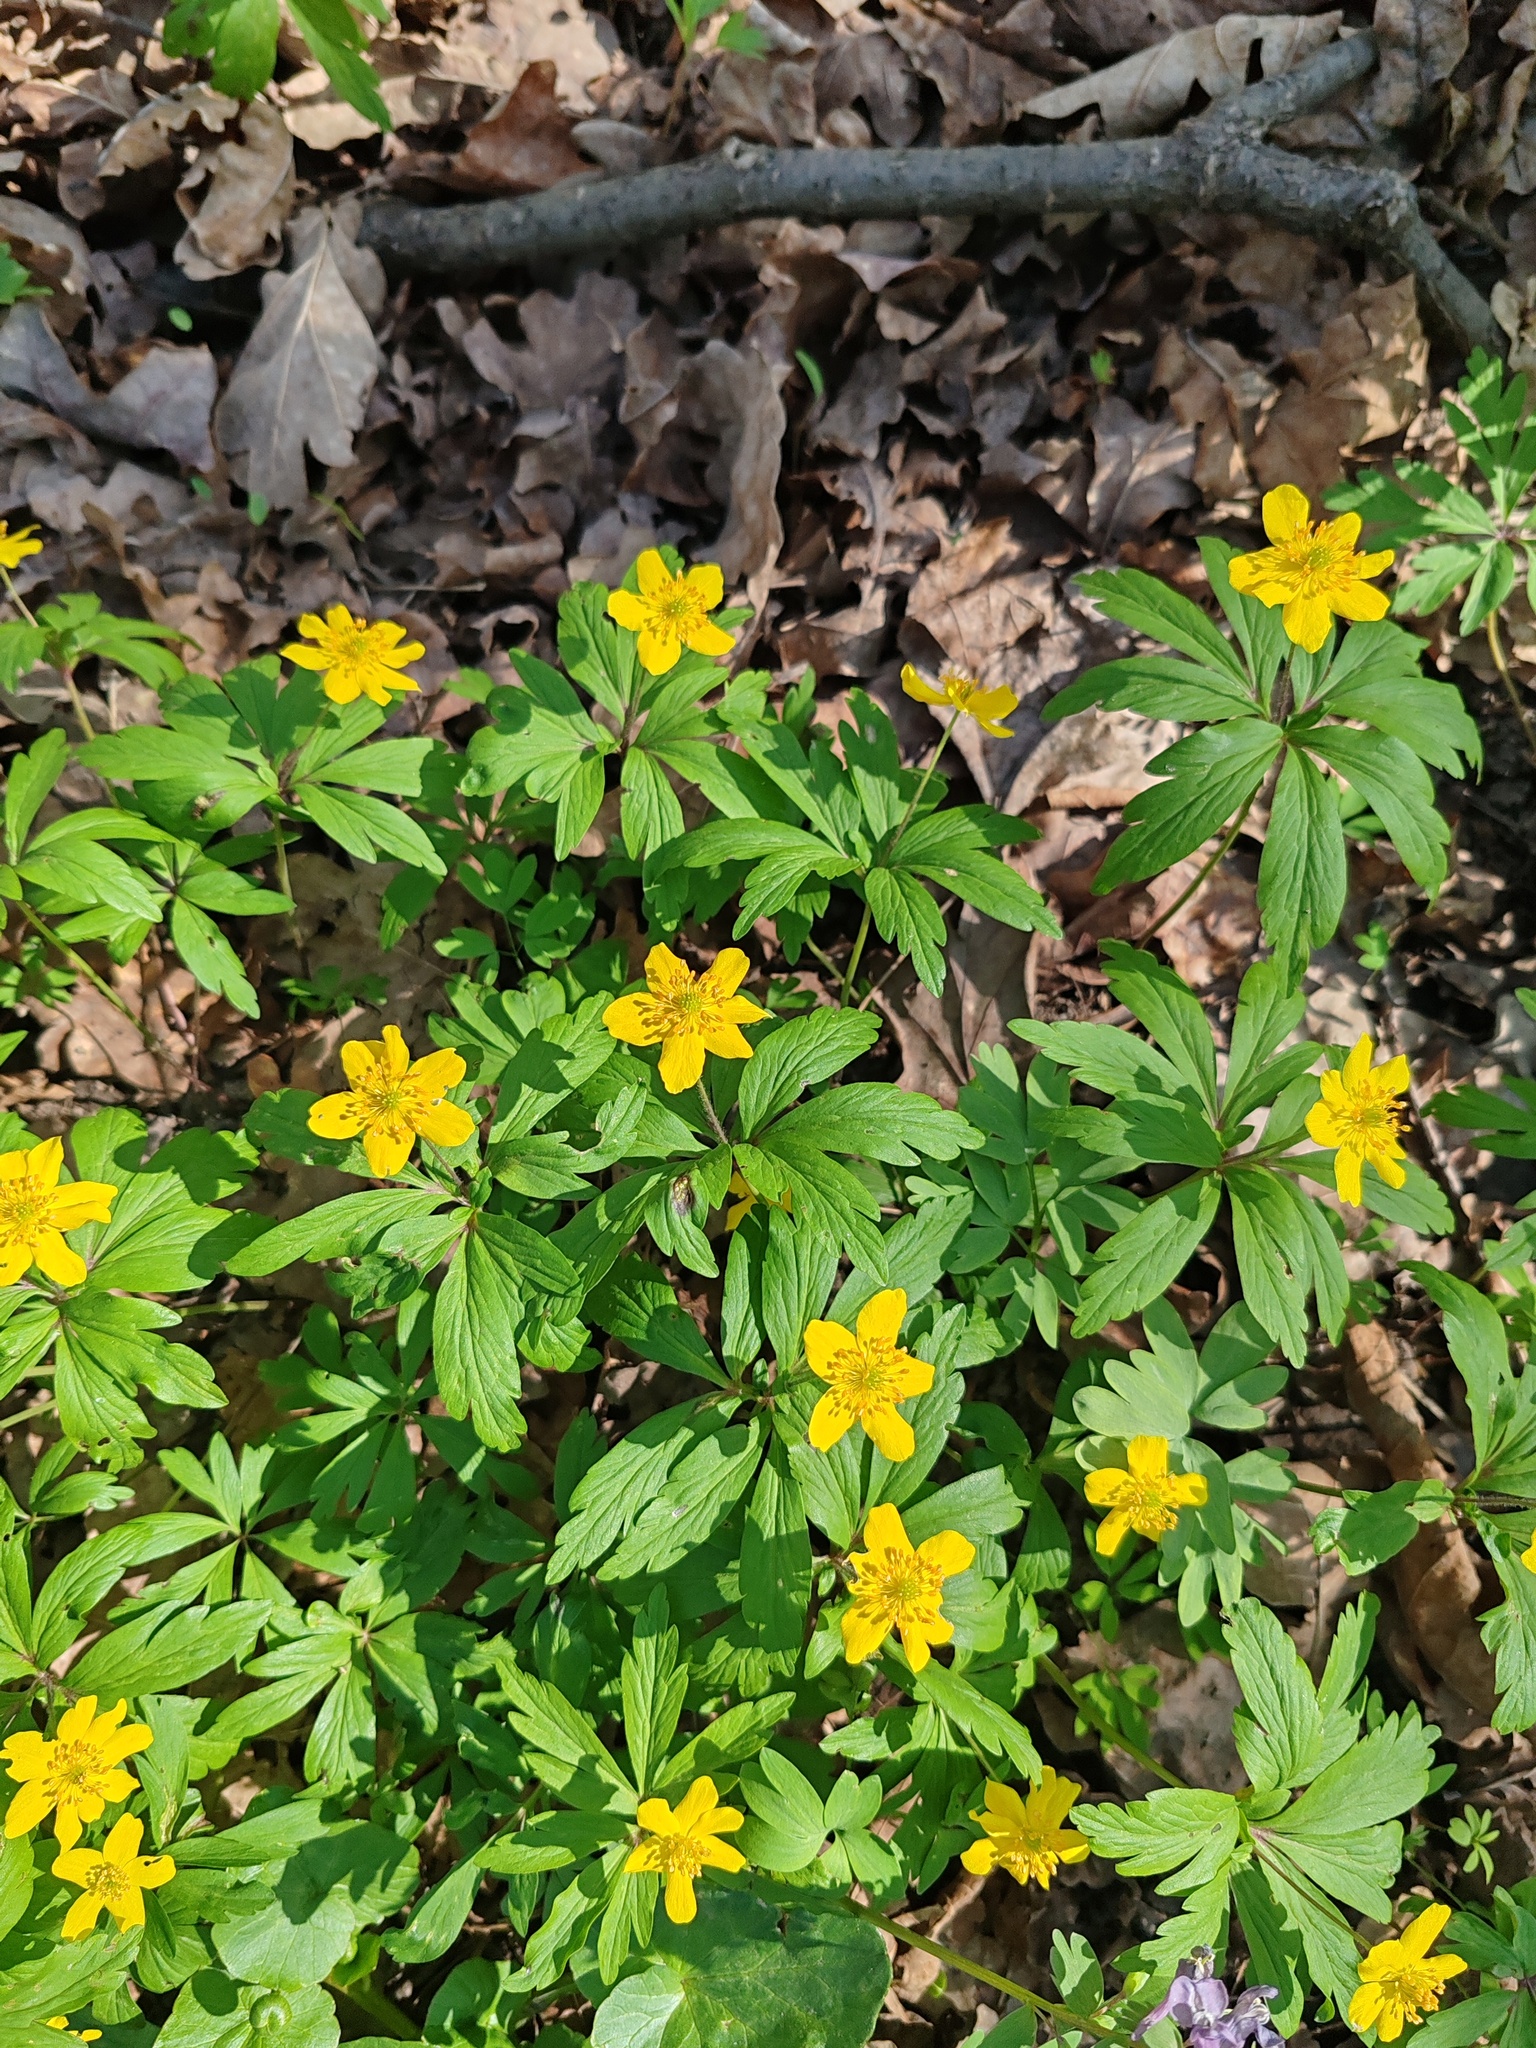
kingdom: Plantae
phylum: Tracheophyta
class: Magnoliopsida
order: Ranunculales
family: Ranunculaceae
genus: Anemone
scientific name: Anemone ranunculoides
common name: Yellow anemone
